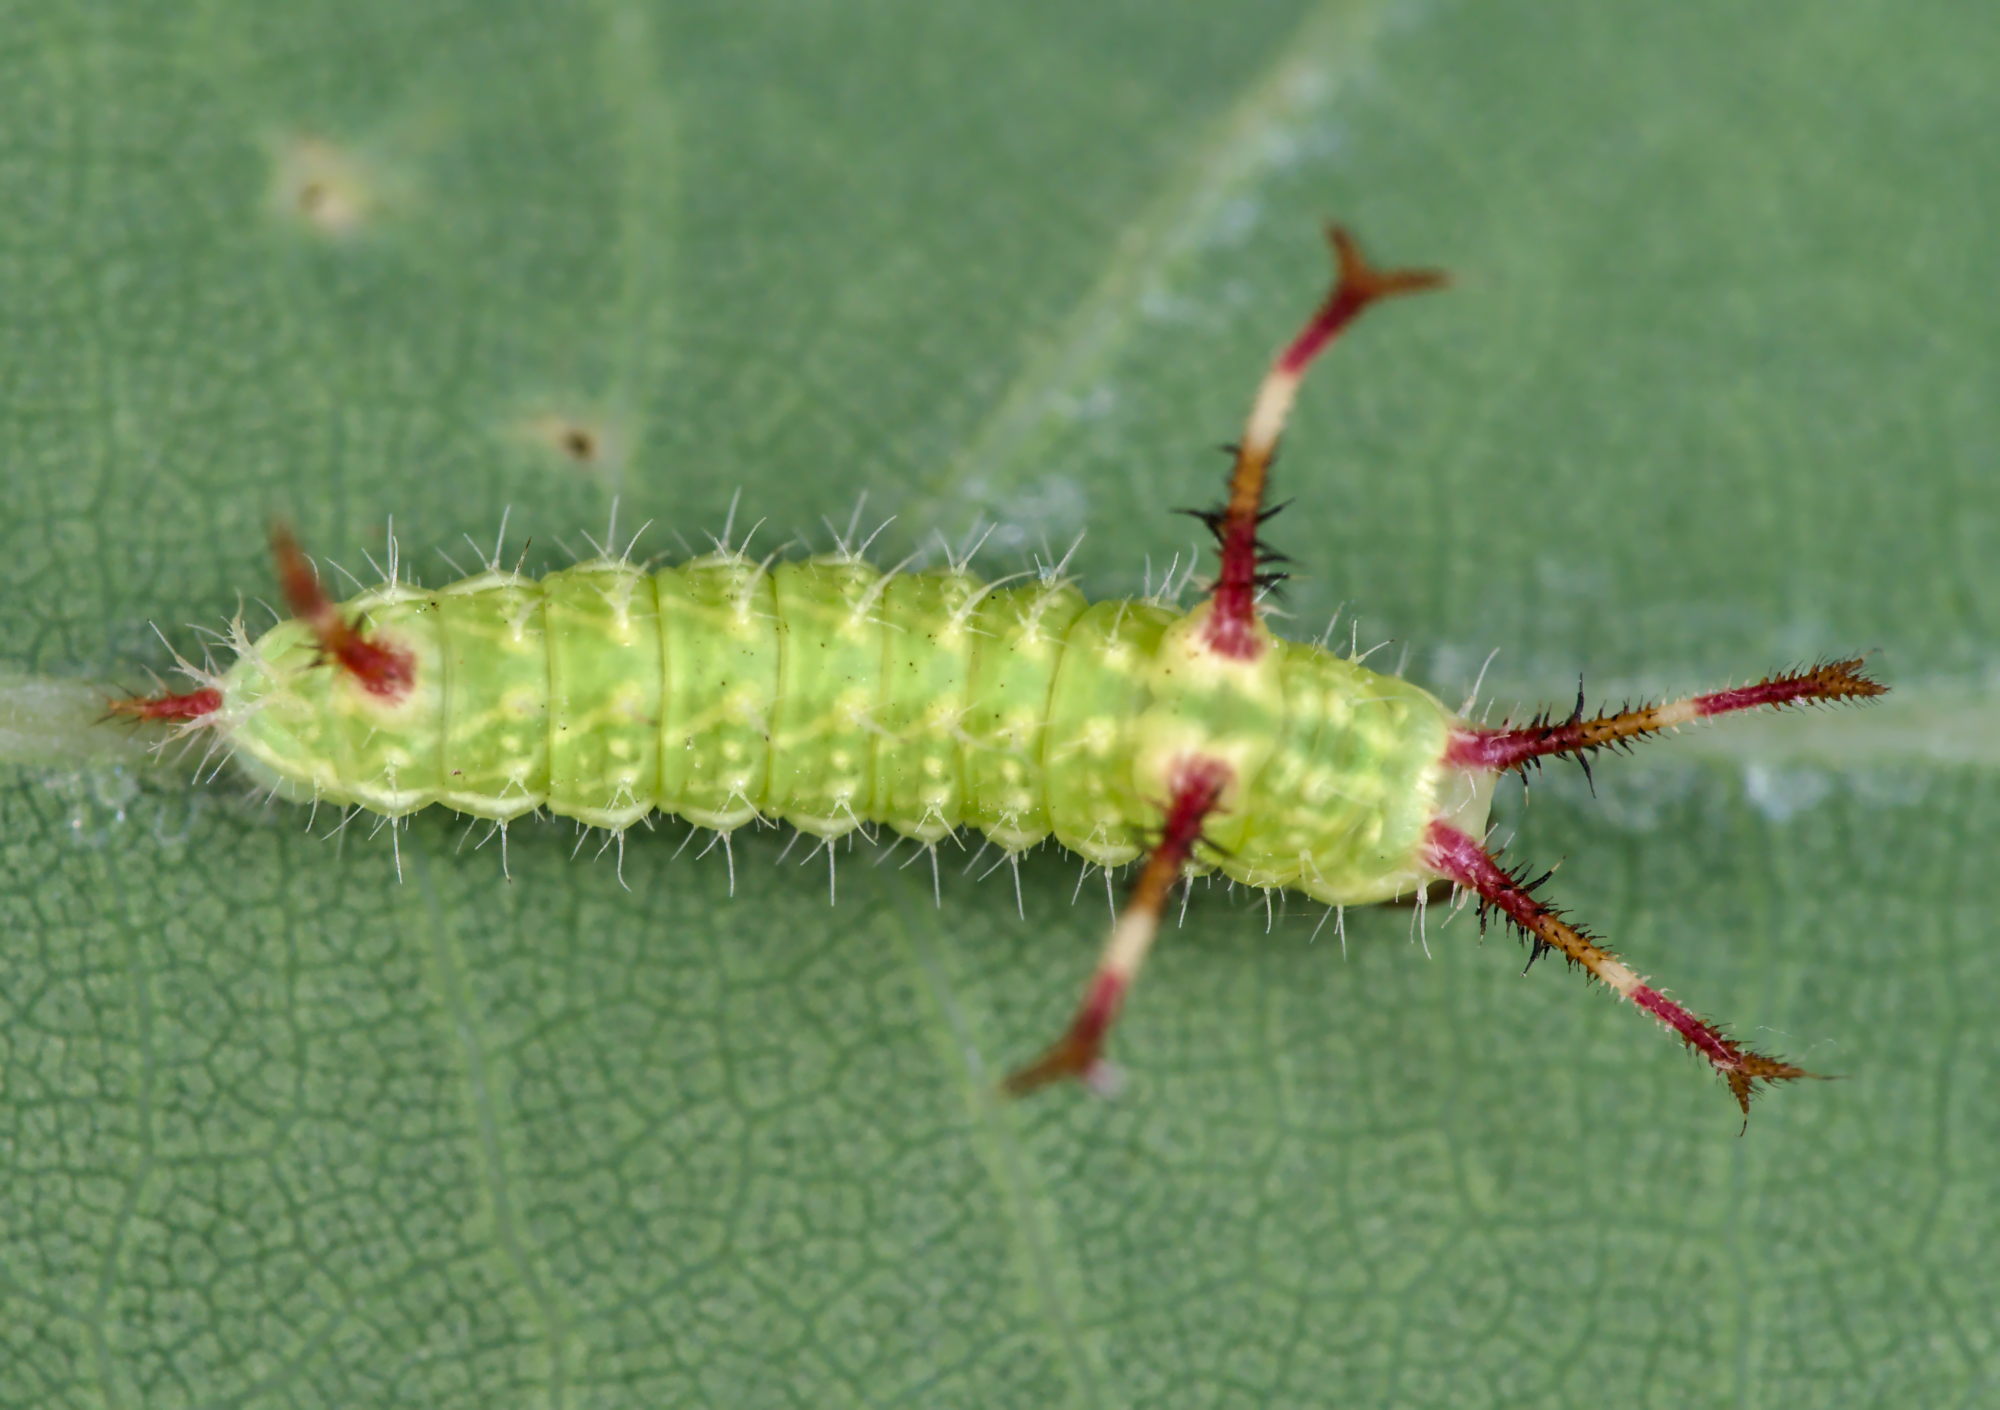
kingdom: Animalia
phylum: Arthropoda
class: Insecta
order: Lepidoptera
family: Saturniidae
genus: Aglia
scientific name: Aglia tau
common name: Tau emperor
